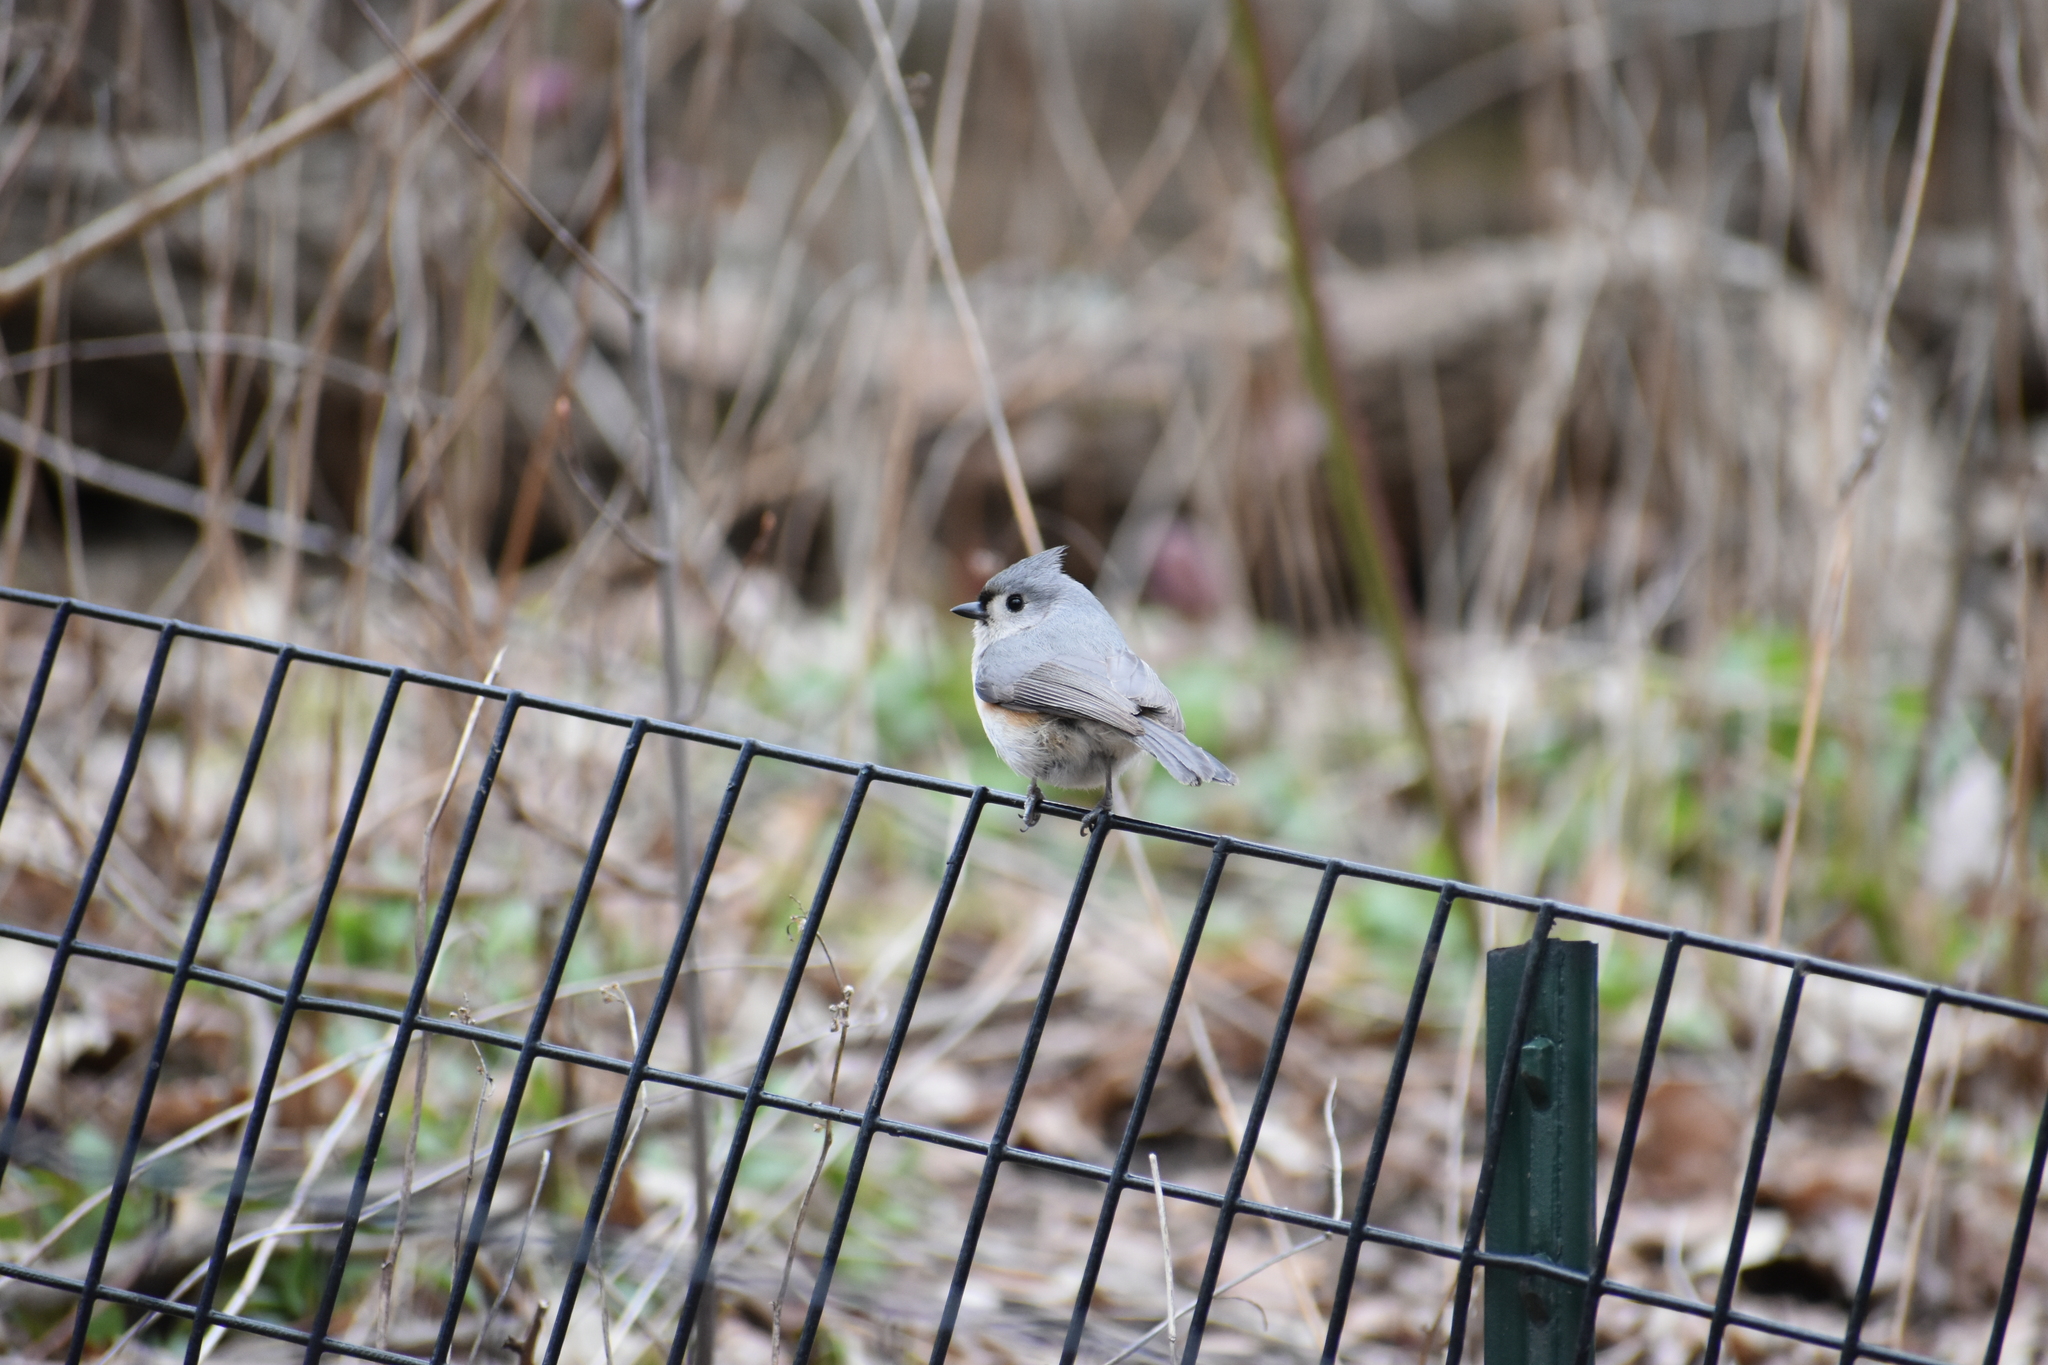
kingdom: Animalia
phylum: Chordata
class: Aves
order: Passeriformes
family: Paridae
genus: Baeolophus
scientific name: Baeolophus bicolor
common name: Tufted titmouse
